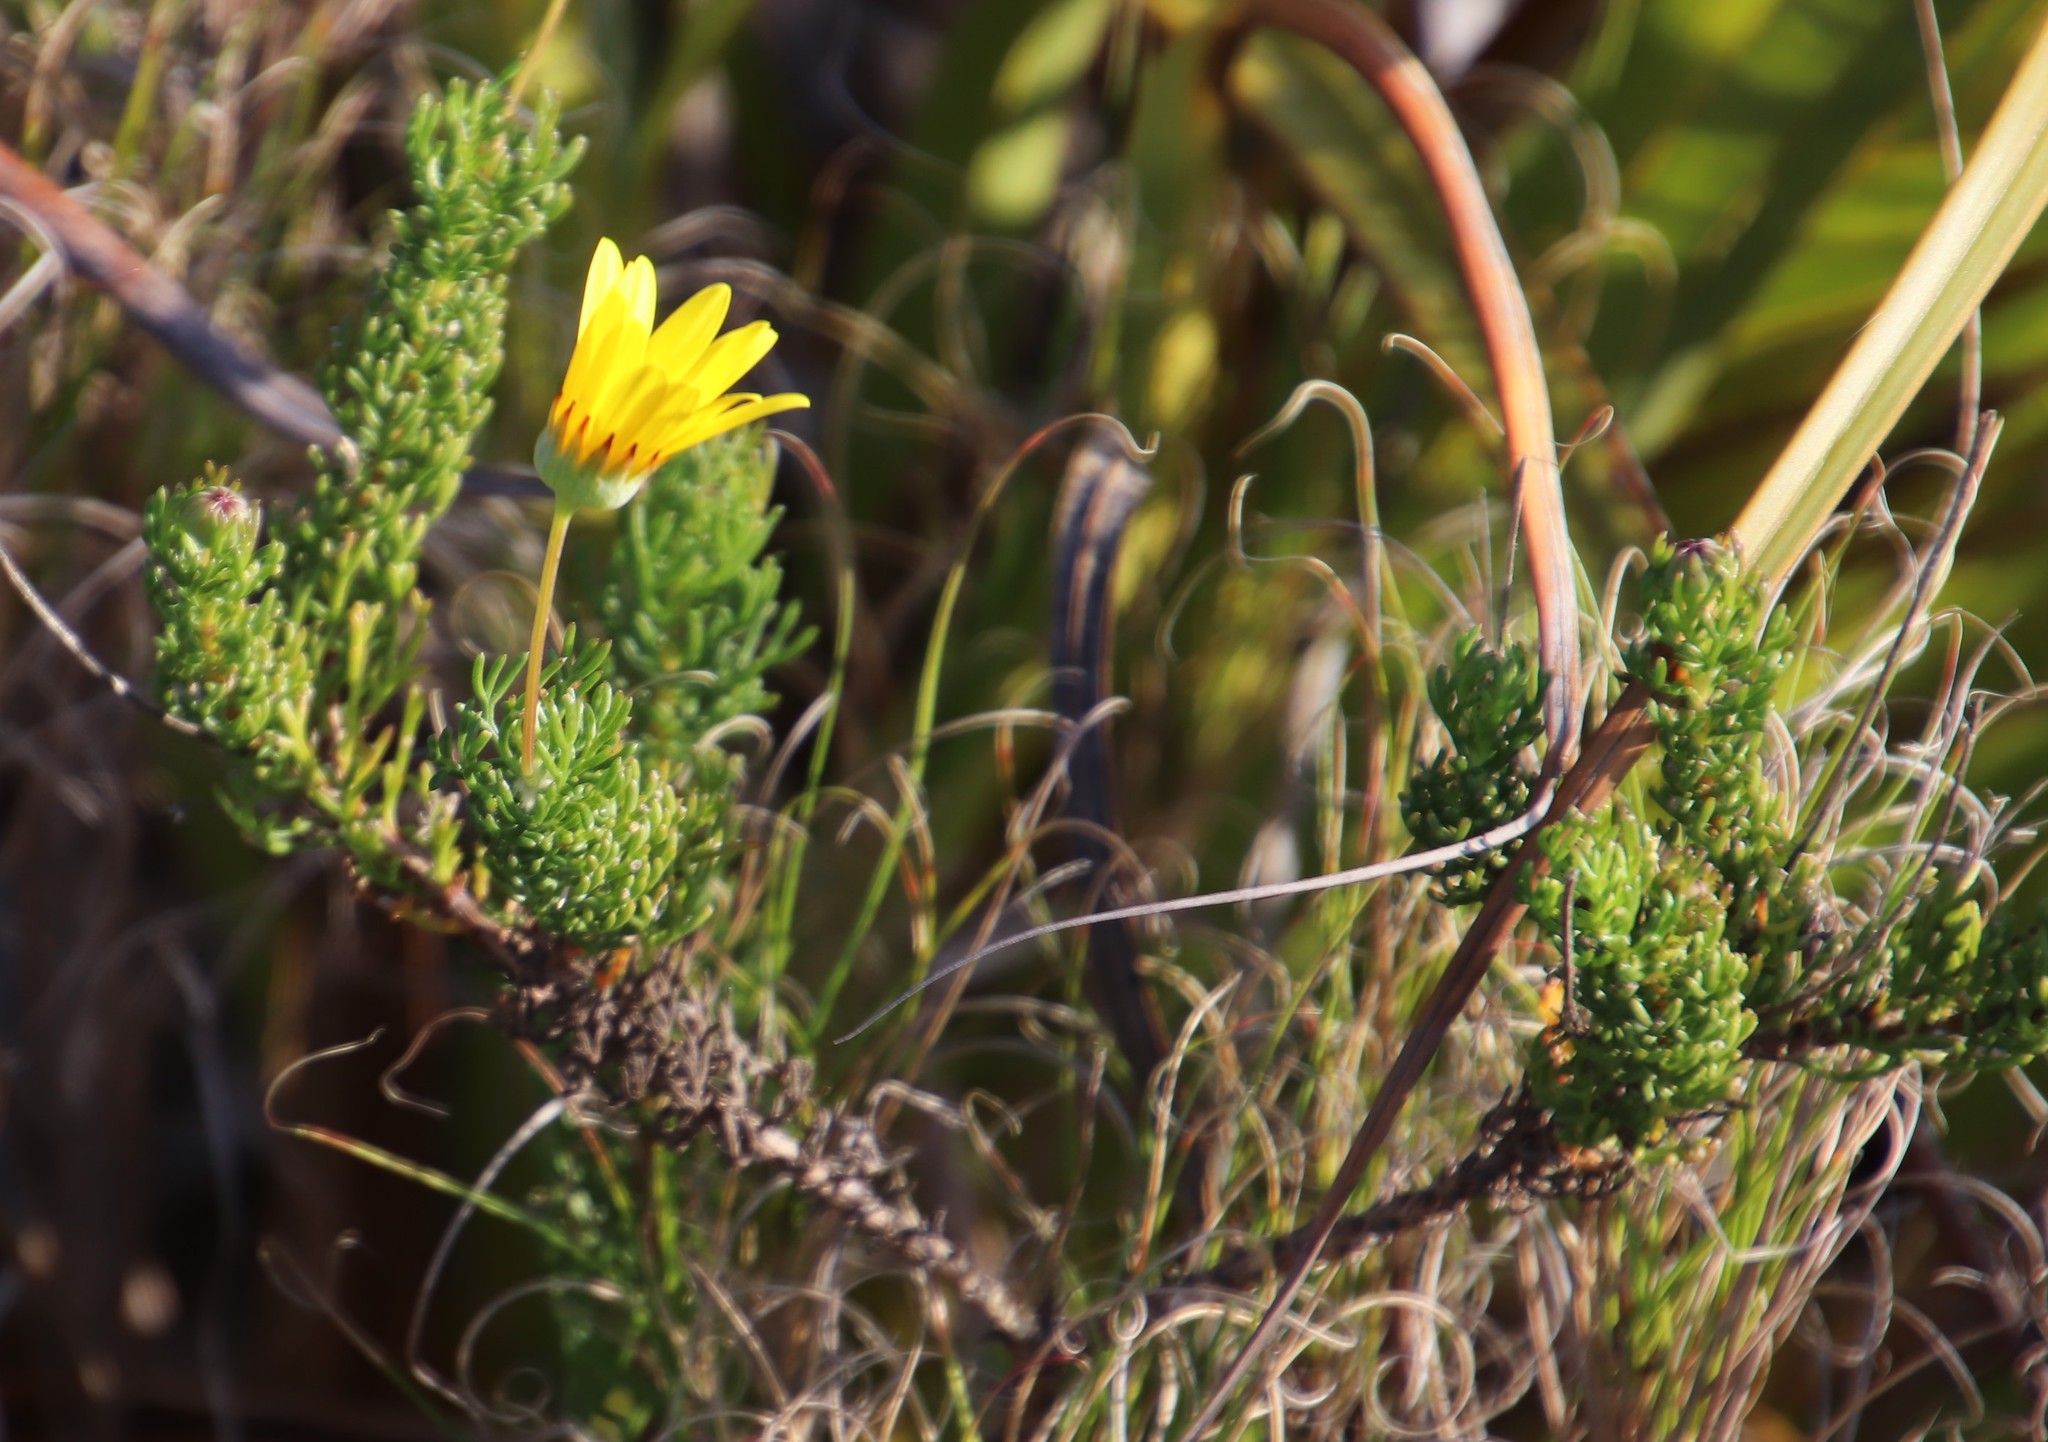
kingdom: Plantae
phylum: Tracheophyta
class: Magnoliopsida
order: Asterales
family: Asteraceae
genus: Euryops
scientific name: Euryops abrotanifolius
